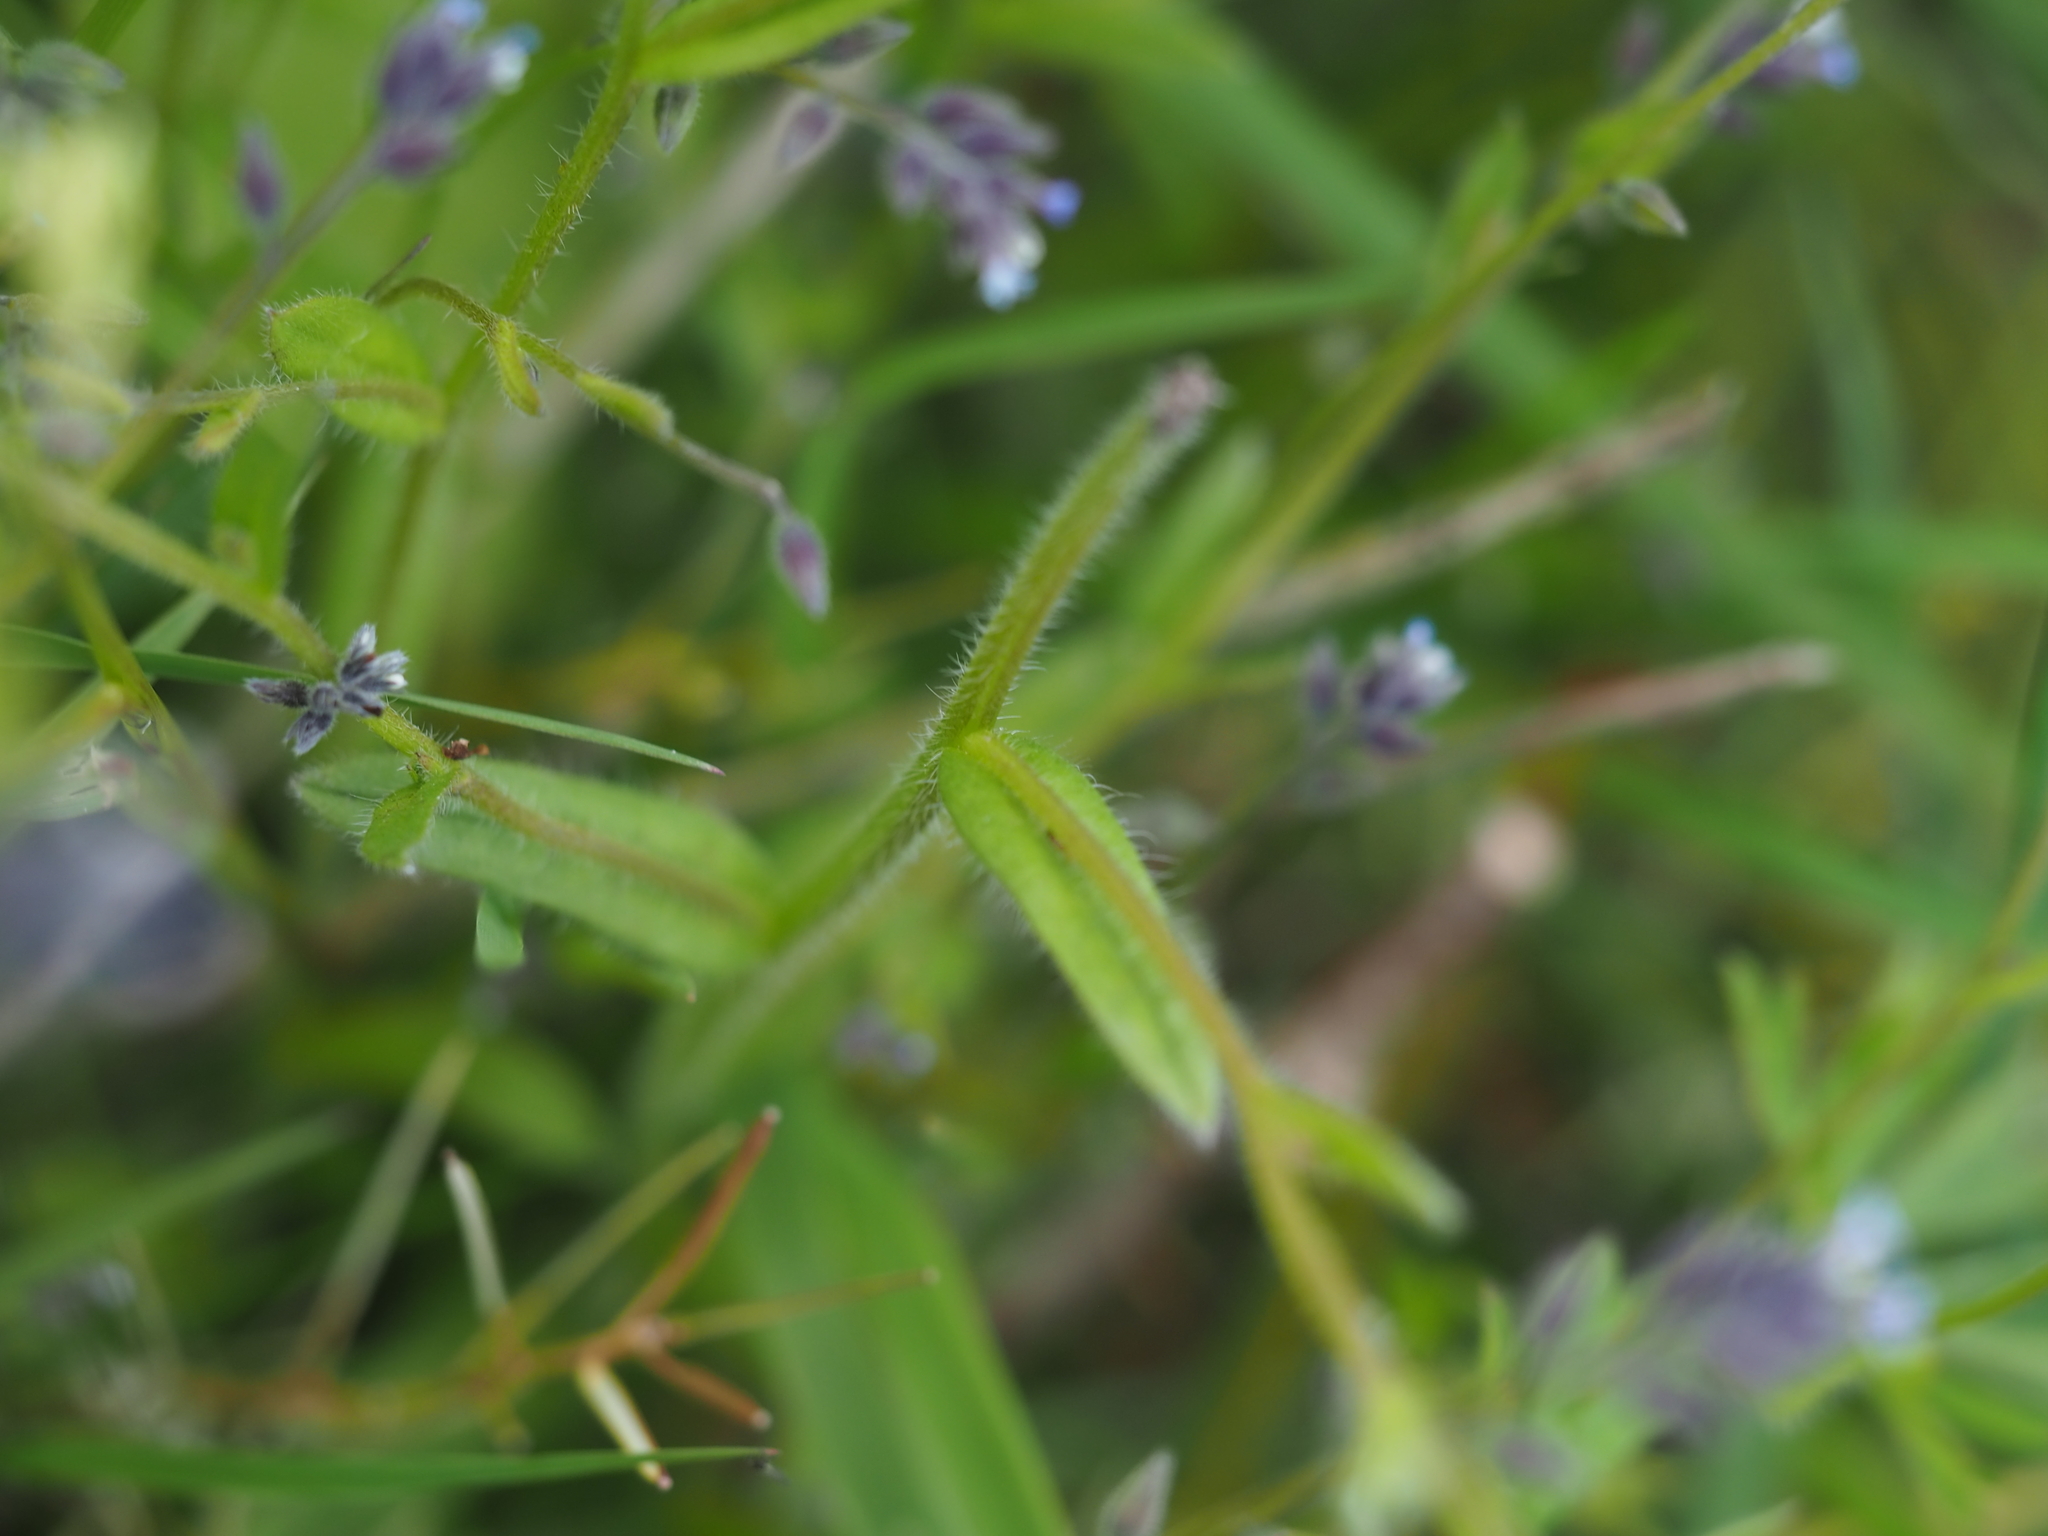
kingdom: Plantae
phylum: Tracheophyta
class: Magnoliopsida
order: Boraginales
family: Boraginaceae
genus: Myosotis
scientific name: Myosotis discolor
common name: Changing forget-me-not
